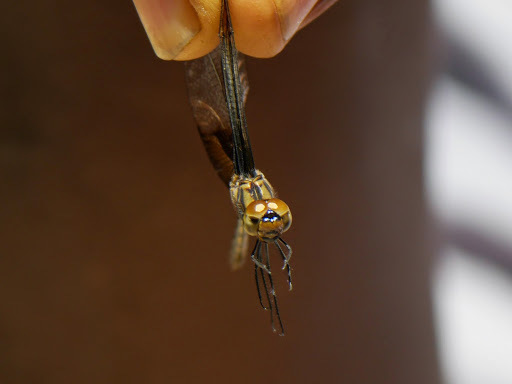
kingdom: Animalia
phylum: Arthropoda
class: Insecta
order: Odonata
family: Libellulidae
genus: Trithemis
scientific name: Trithemis tropicana
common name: Eastern phantom dropwing
